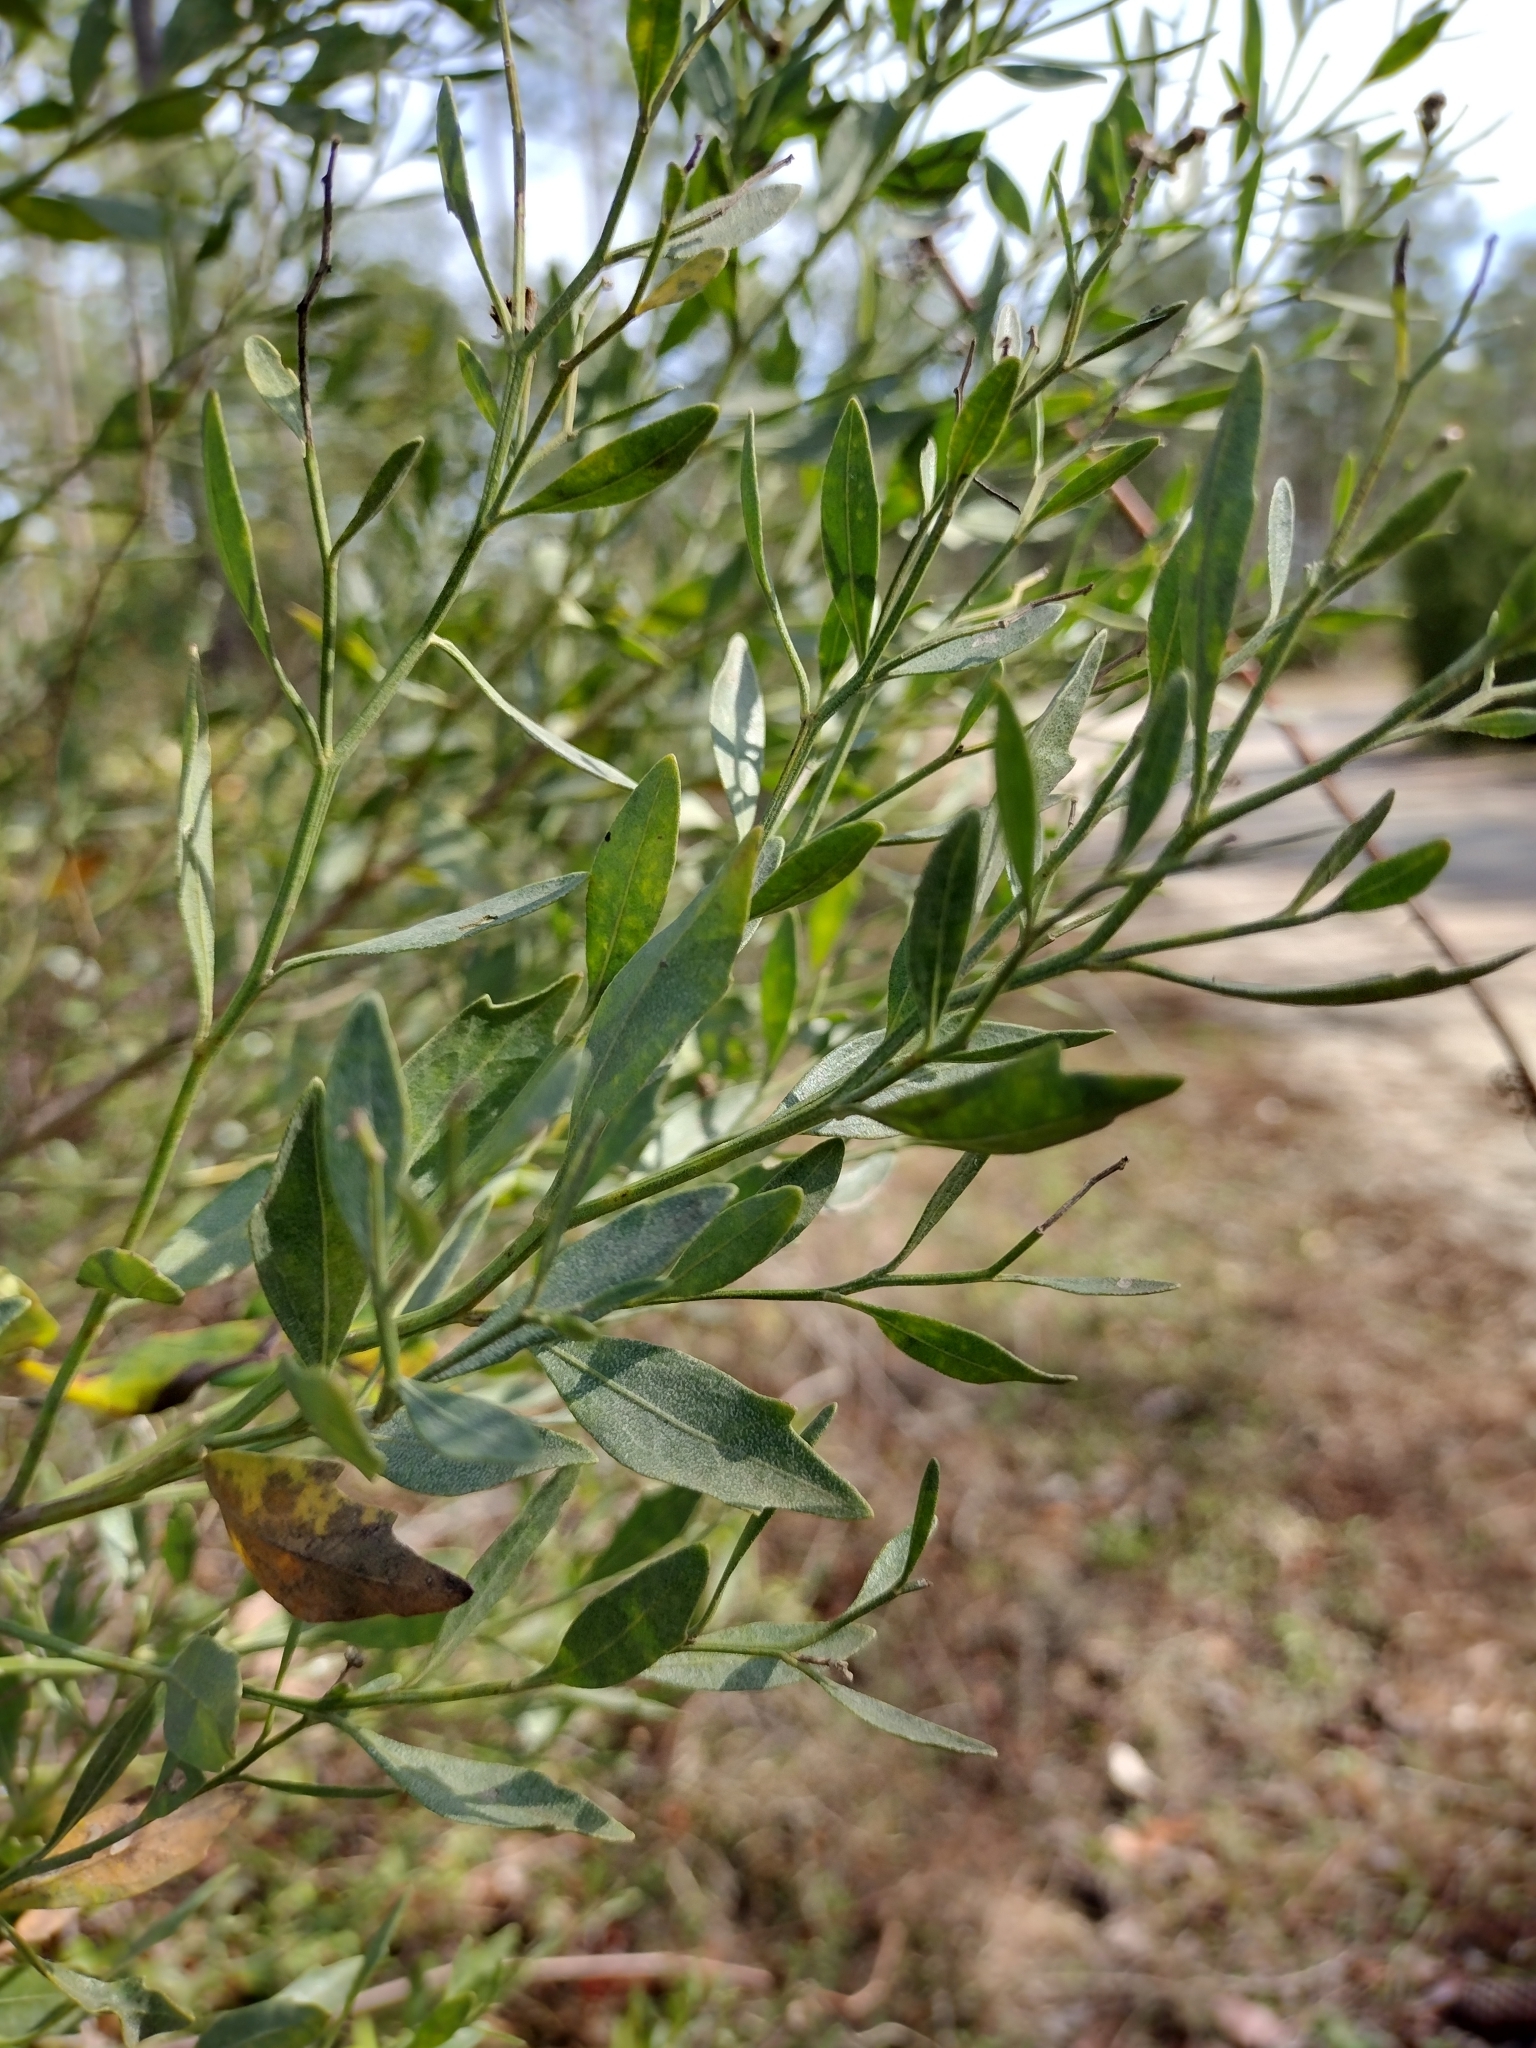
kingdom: Plantae
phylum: Tracheophyta
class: Magnoliopsida
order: Asterales
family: Asteraceae
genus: Baccharis
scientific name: Baccharis halimifolia
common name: Eastern baccharis
